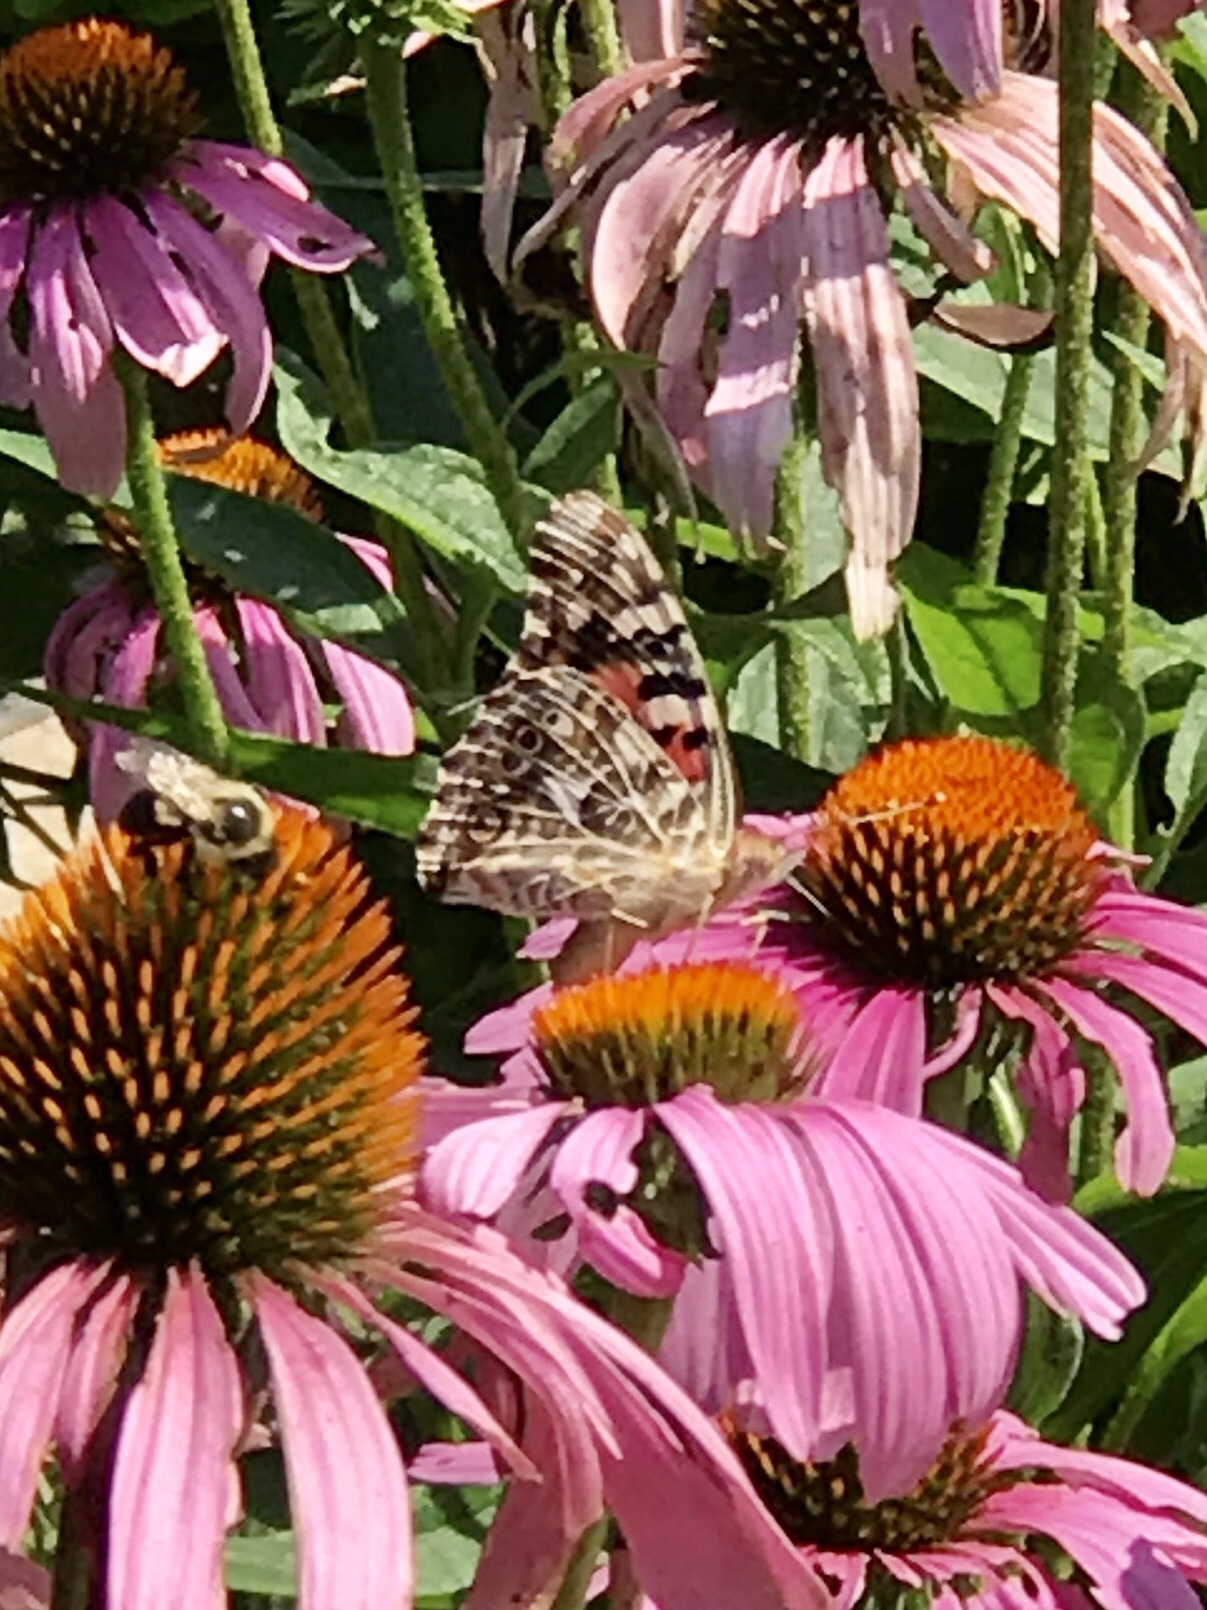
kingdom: Animalia
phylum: Arthropoda
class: Insecta
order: Lepidoptera
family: Nymphalidae
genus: Vanessa
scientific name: Vanessa cardui
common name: Painted lady
